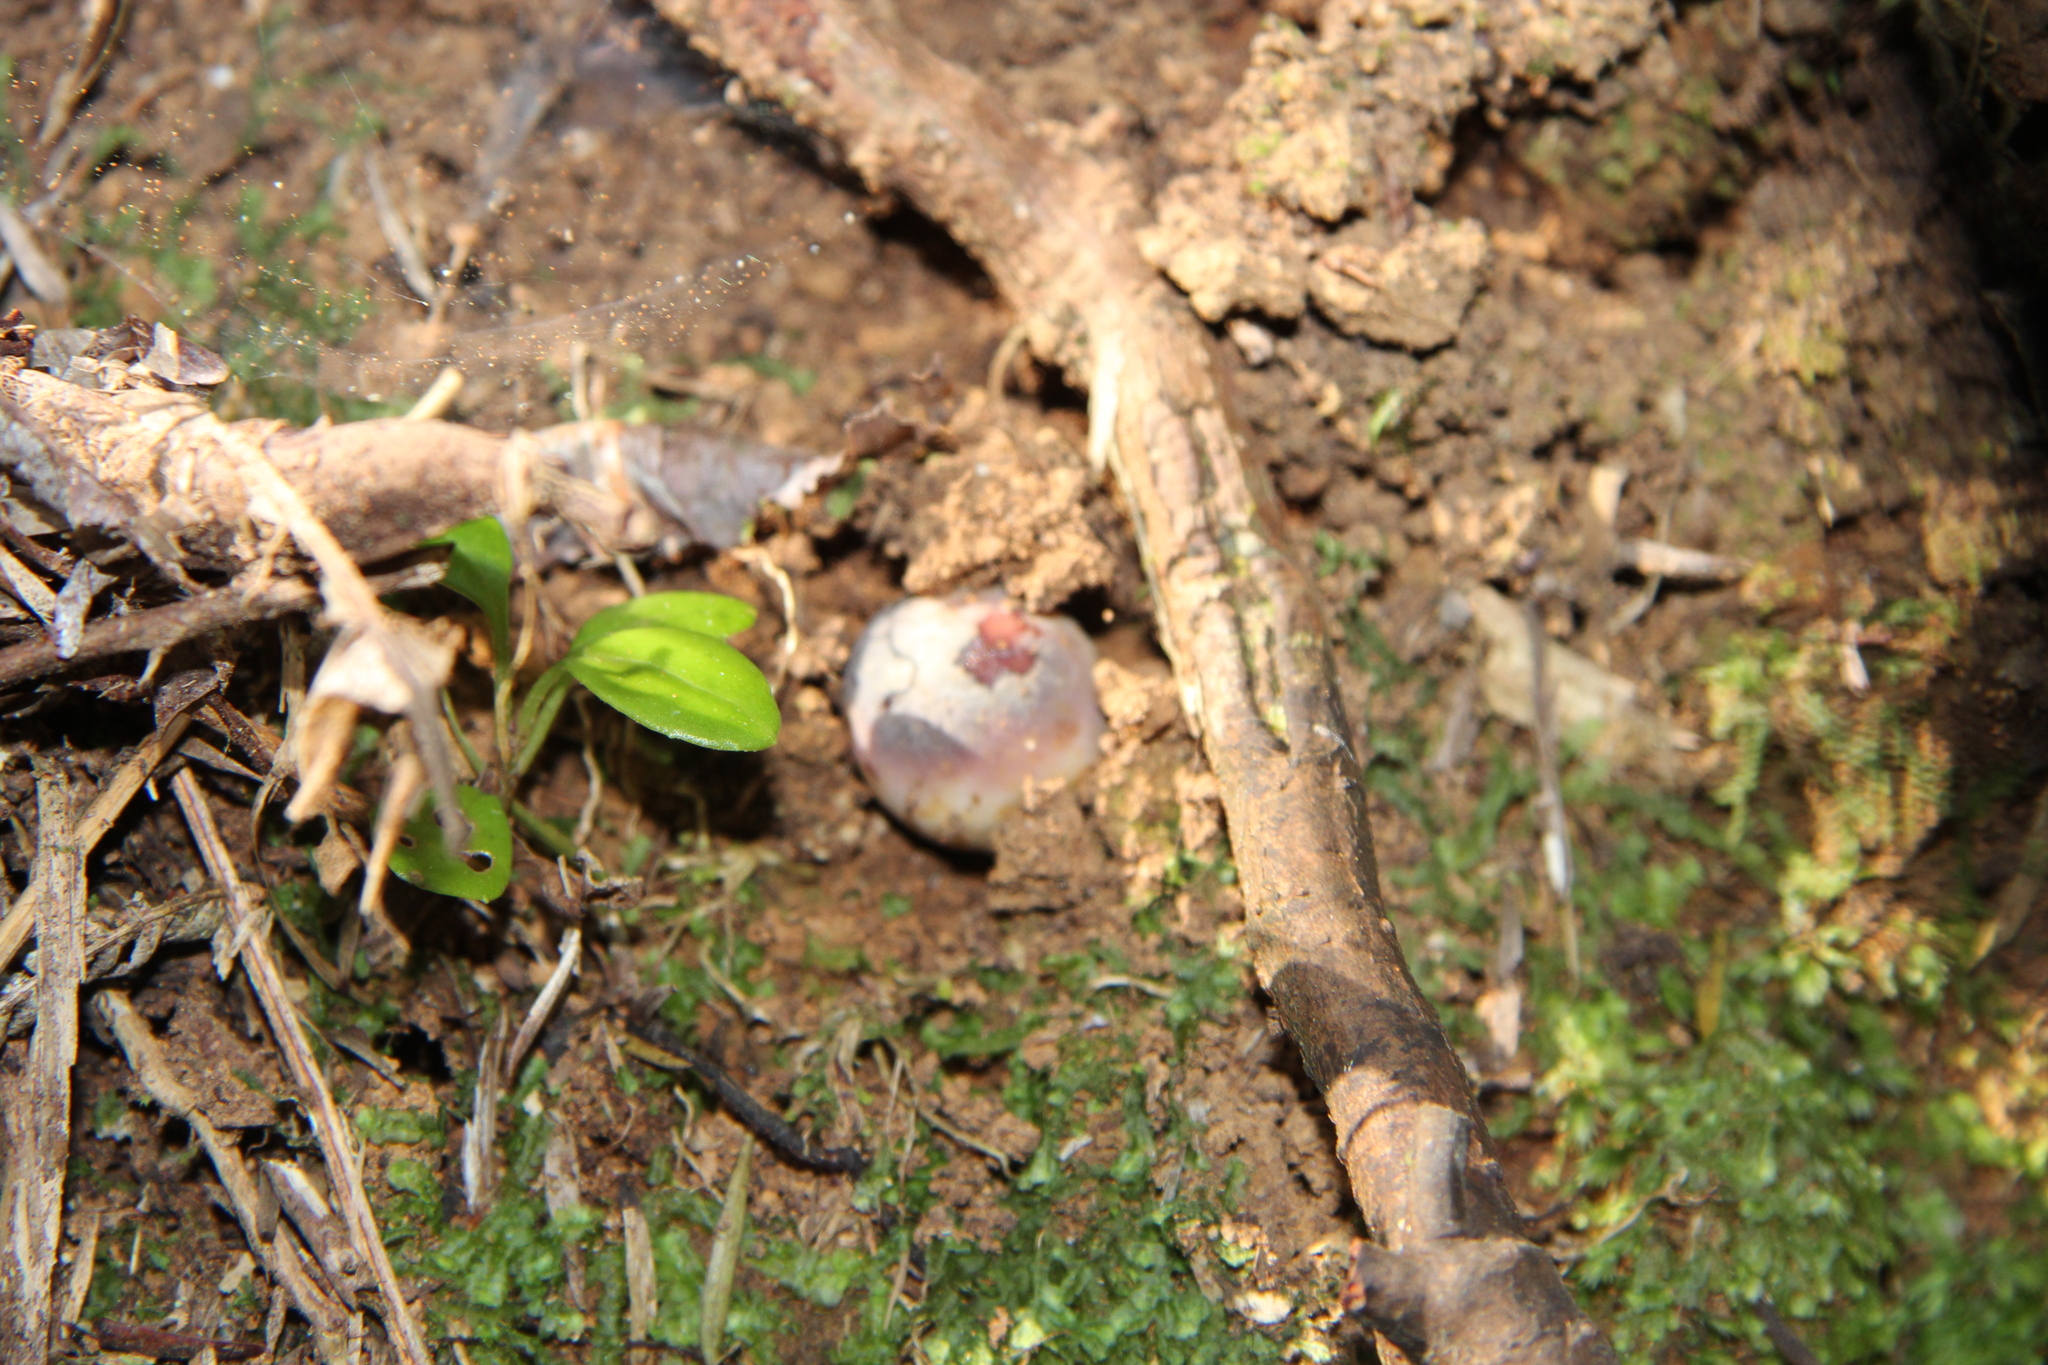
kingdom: Fungi
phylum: Basidiomycota
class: Agaricomycetes
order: Russulales
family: Russulaceae
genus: Russula
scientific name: Russula griseoviridis
